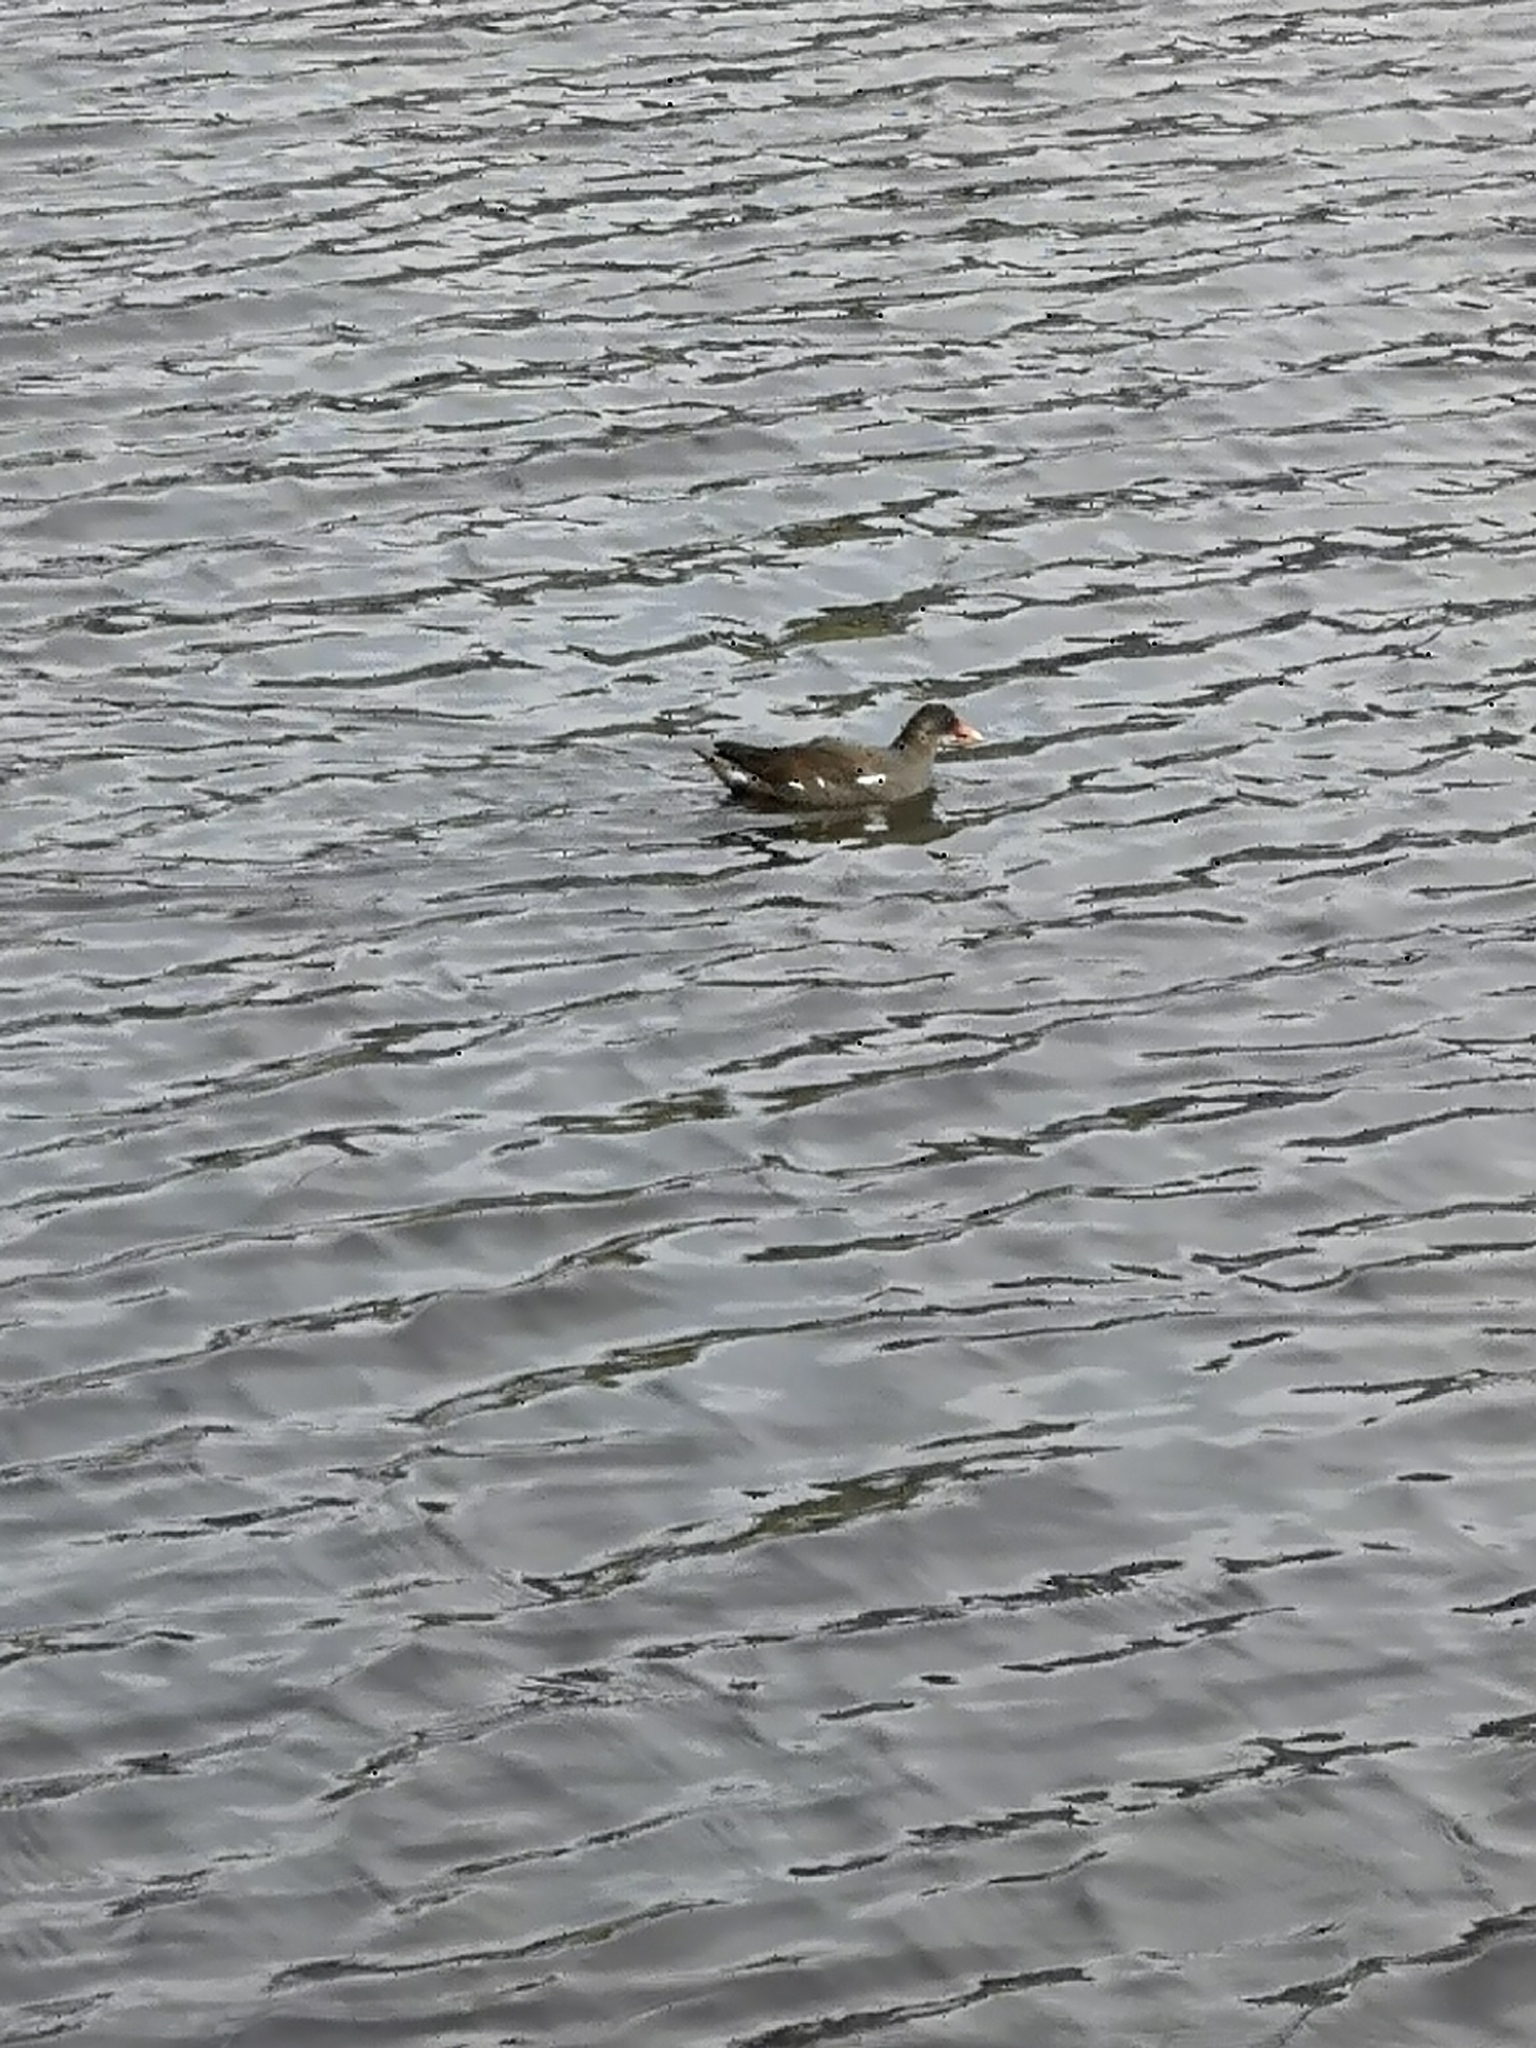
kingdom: Animalia
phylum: Chordata
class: Aves
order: Gruiformes
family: Rallidae
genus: Gallinula
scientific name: Gallinula chloropus
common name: Common moorhen
